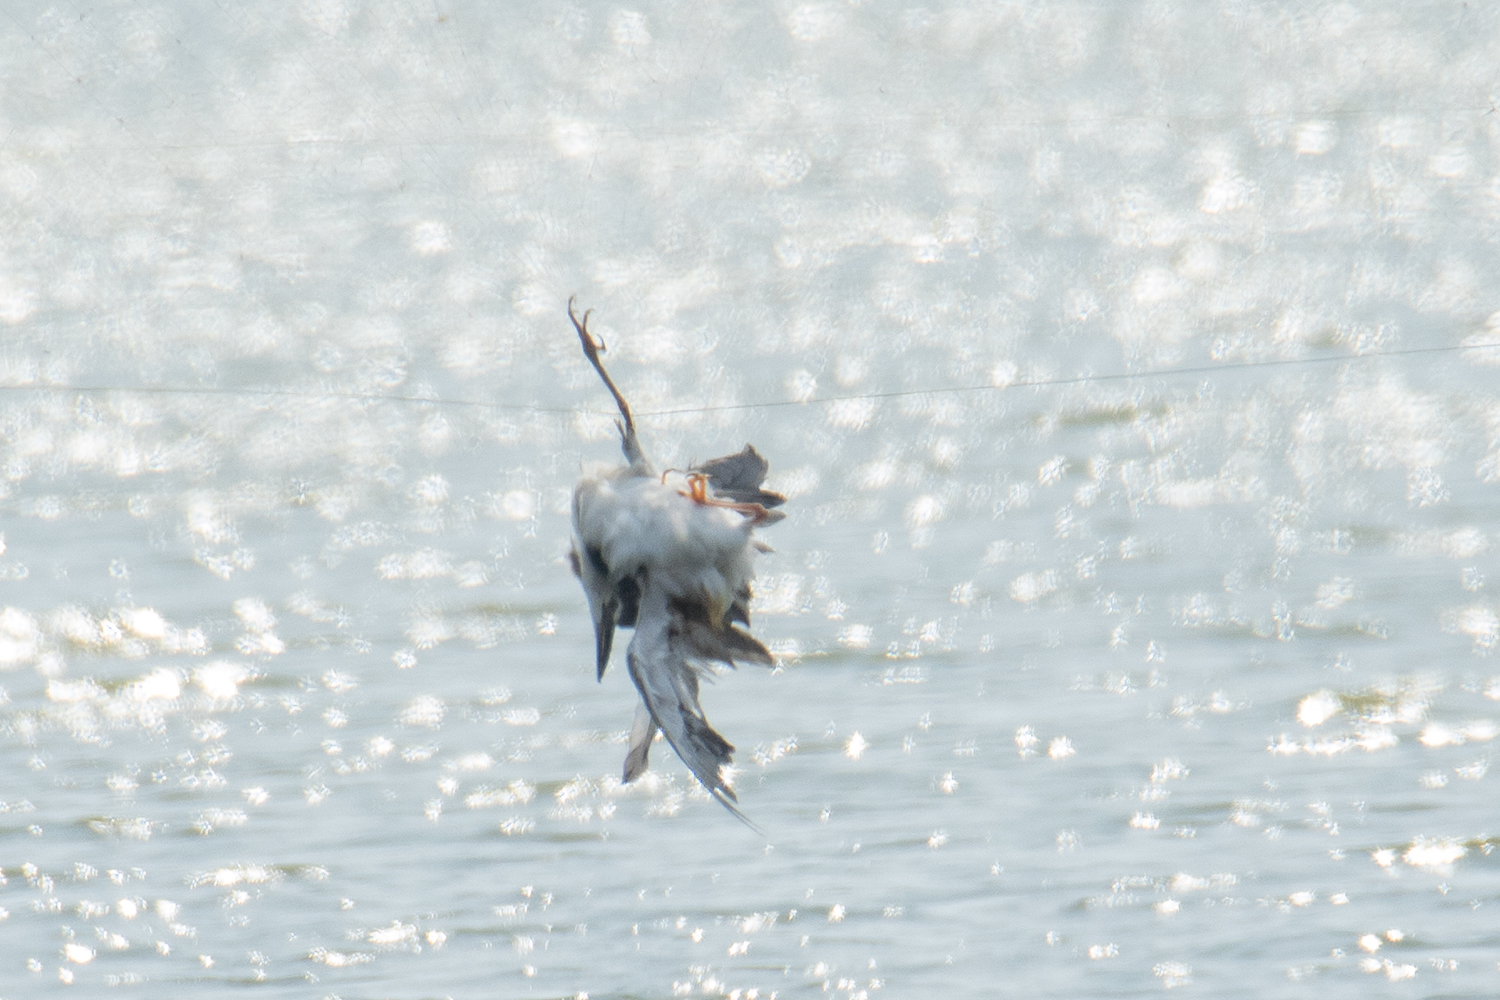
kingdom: Animalia
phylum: Chordata
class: Aves
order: Pelecaniformes
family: Ardeidae
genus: Nycticorax
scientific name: Nycticorax nycticorax
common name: Black-crowned night heron
